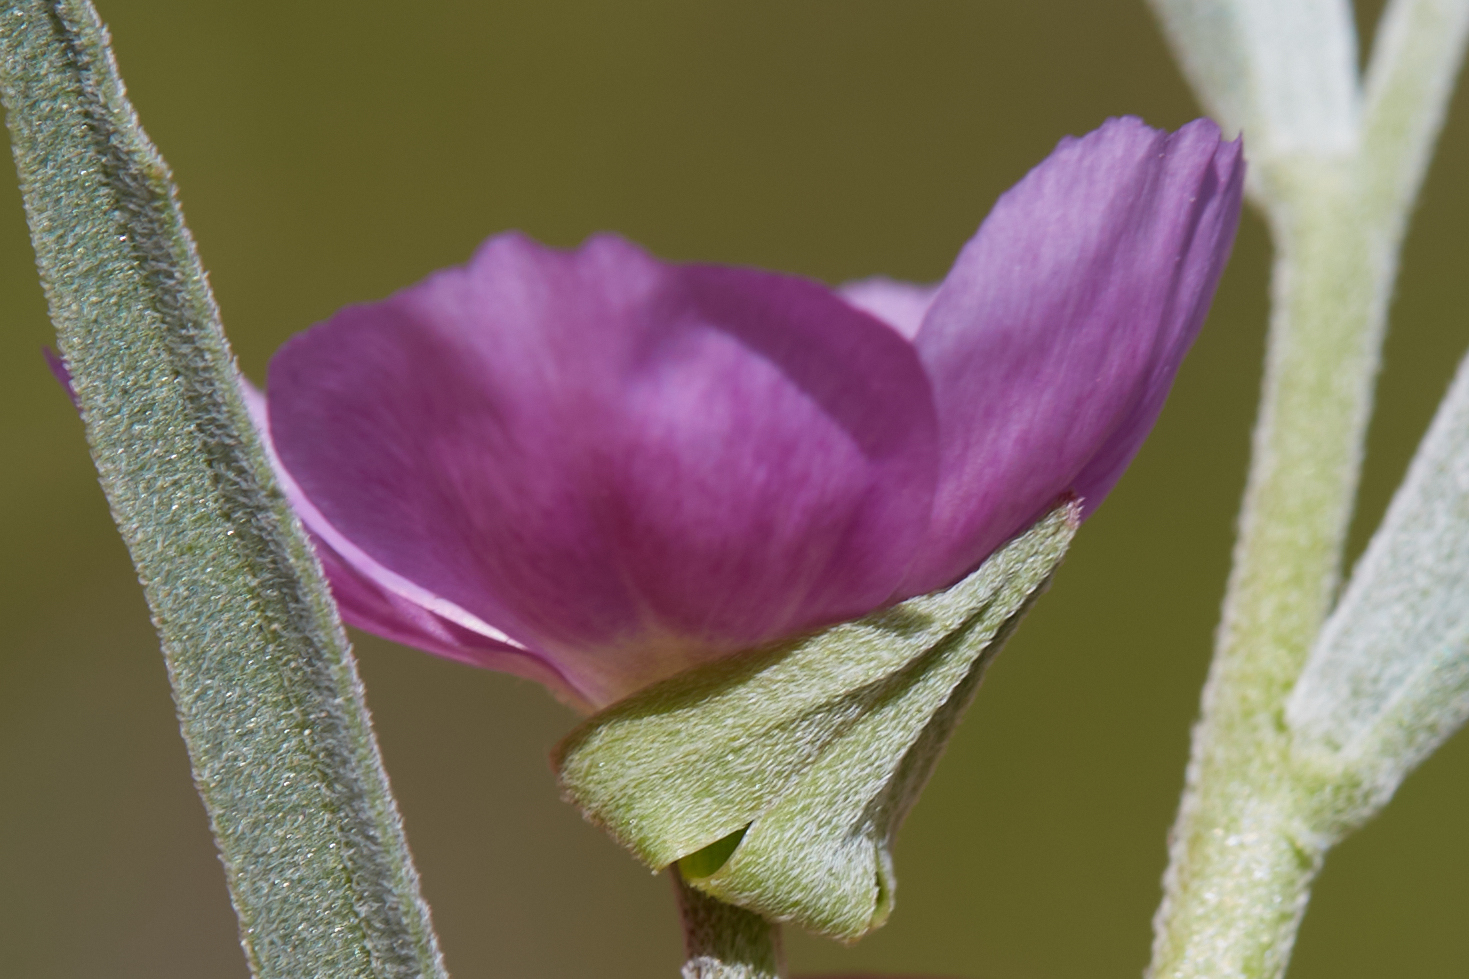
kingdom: Plantae
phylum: Tracheophyta
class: Magnoliopsida
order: Myrtales
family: Onagraceae
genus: Clarkia
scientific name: Clarkia affinis
